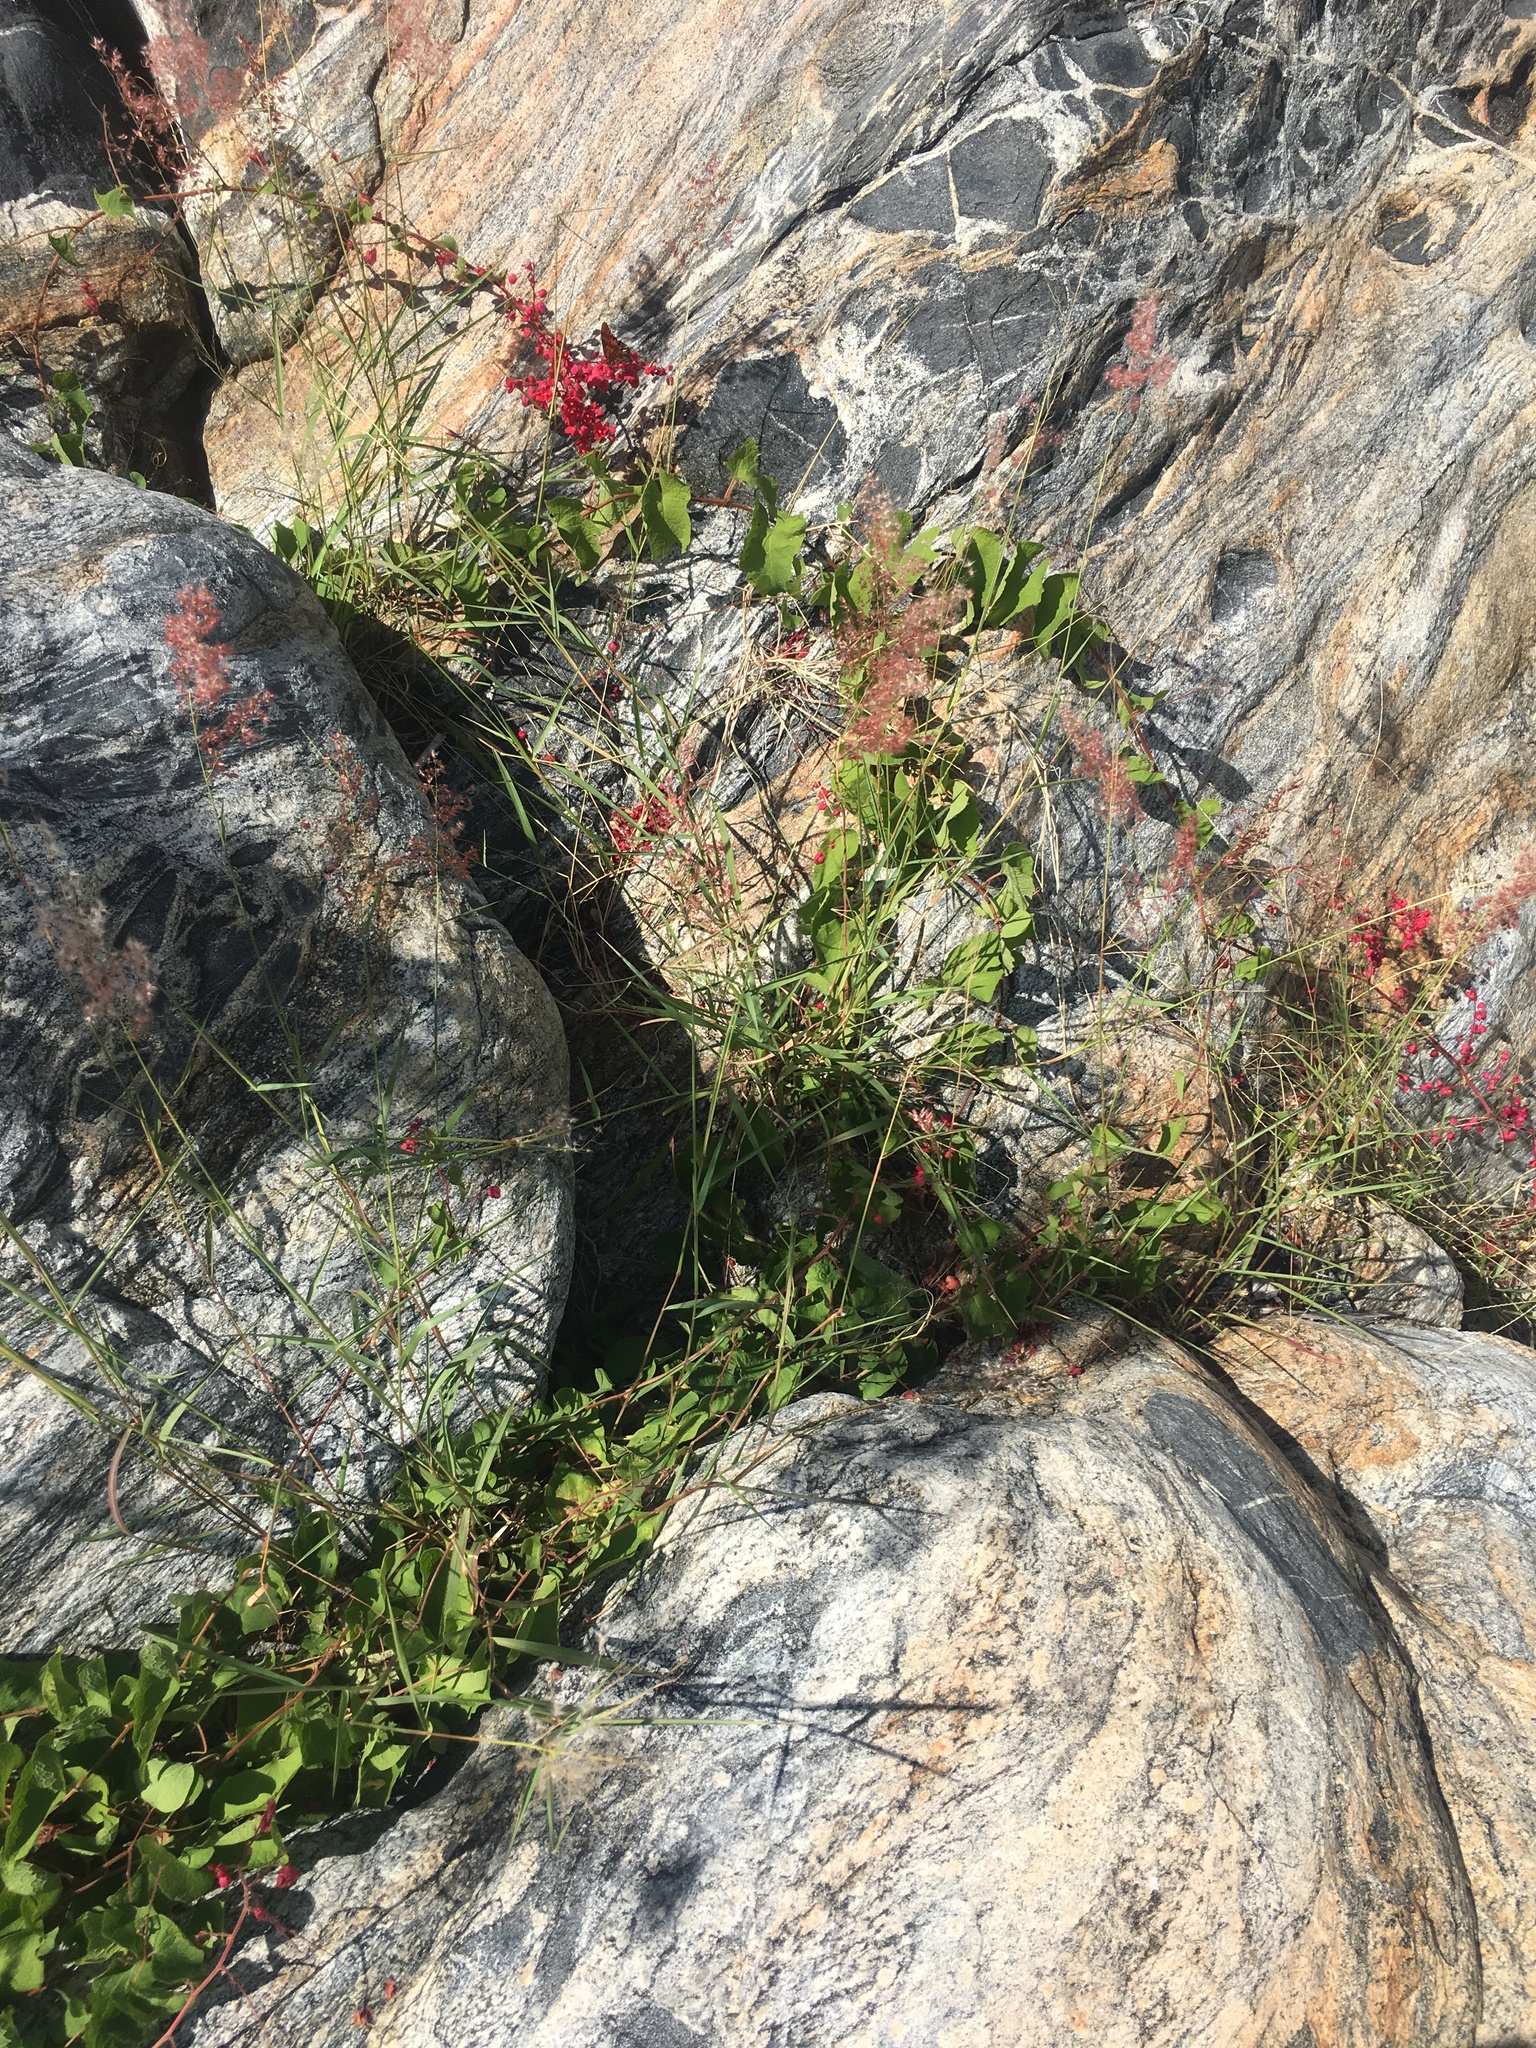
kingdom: Plantae
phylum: Tracheophyta
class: Magnoliopsida
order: Caryophyllales
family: Polygonaceae
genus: Antigonon
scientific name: Antigonon leptopus
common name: Coral vine
